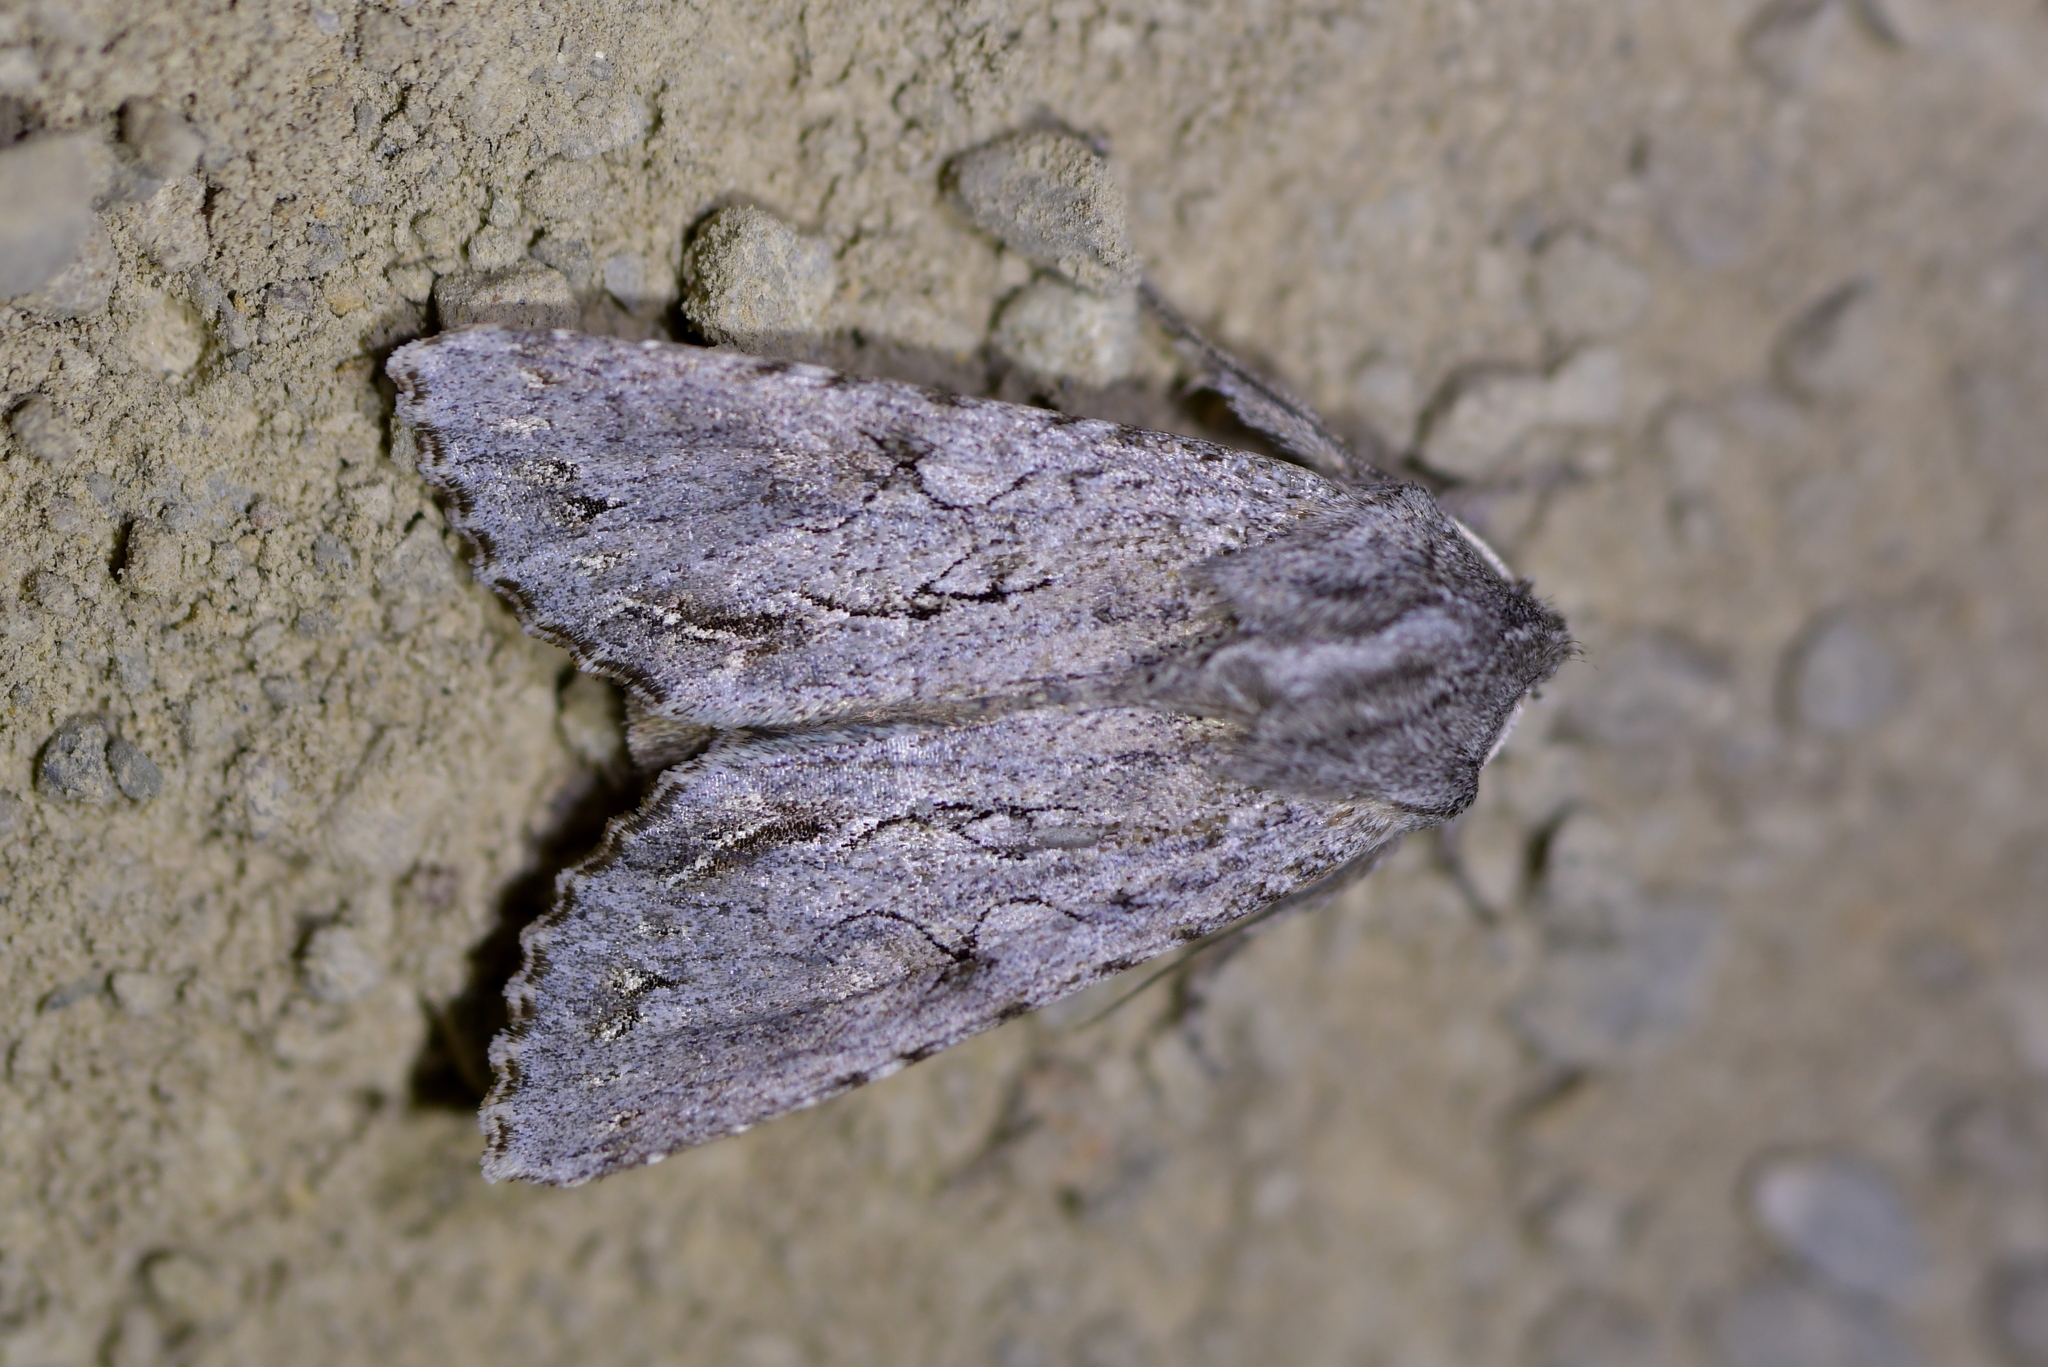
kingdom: Animalia
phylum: Arthropoda
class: Insecta
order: Lepidoptera
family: Noctuidae
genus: Ichneutica
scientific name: Ichneutica
